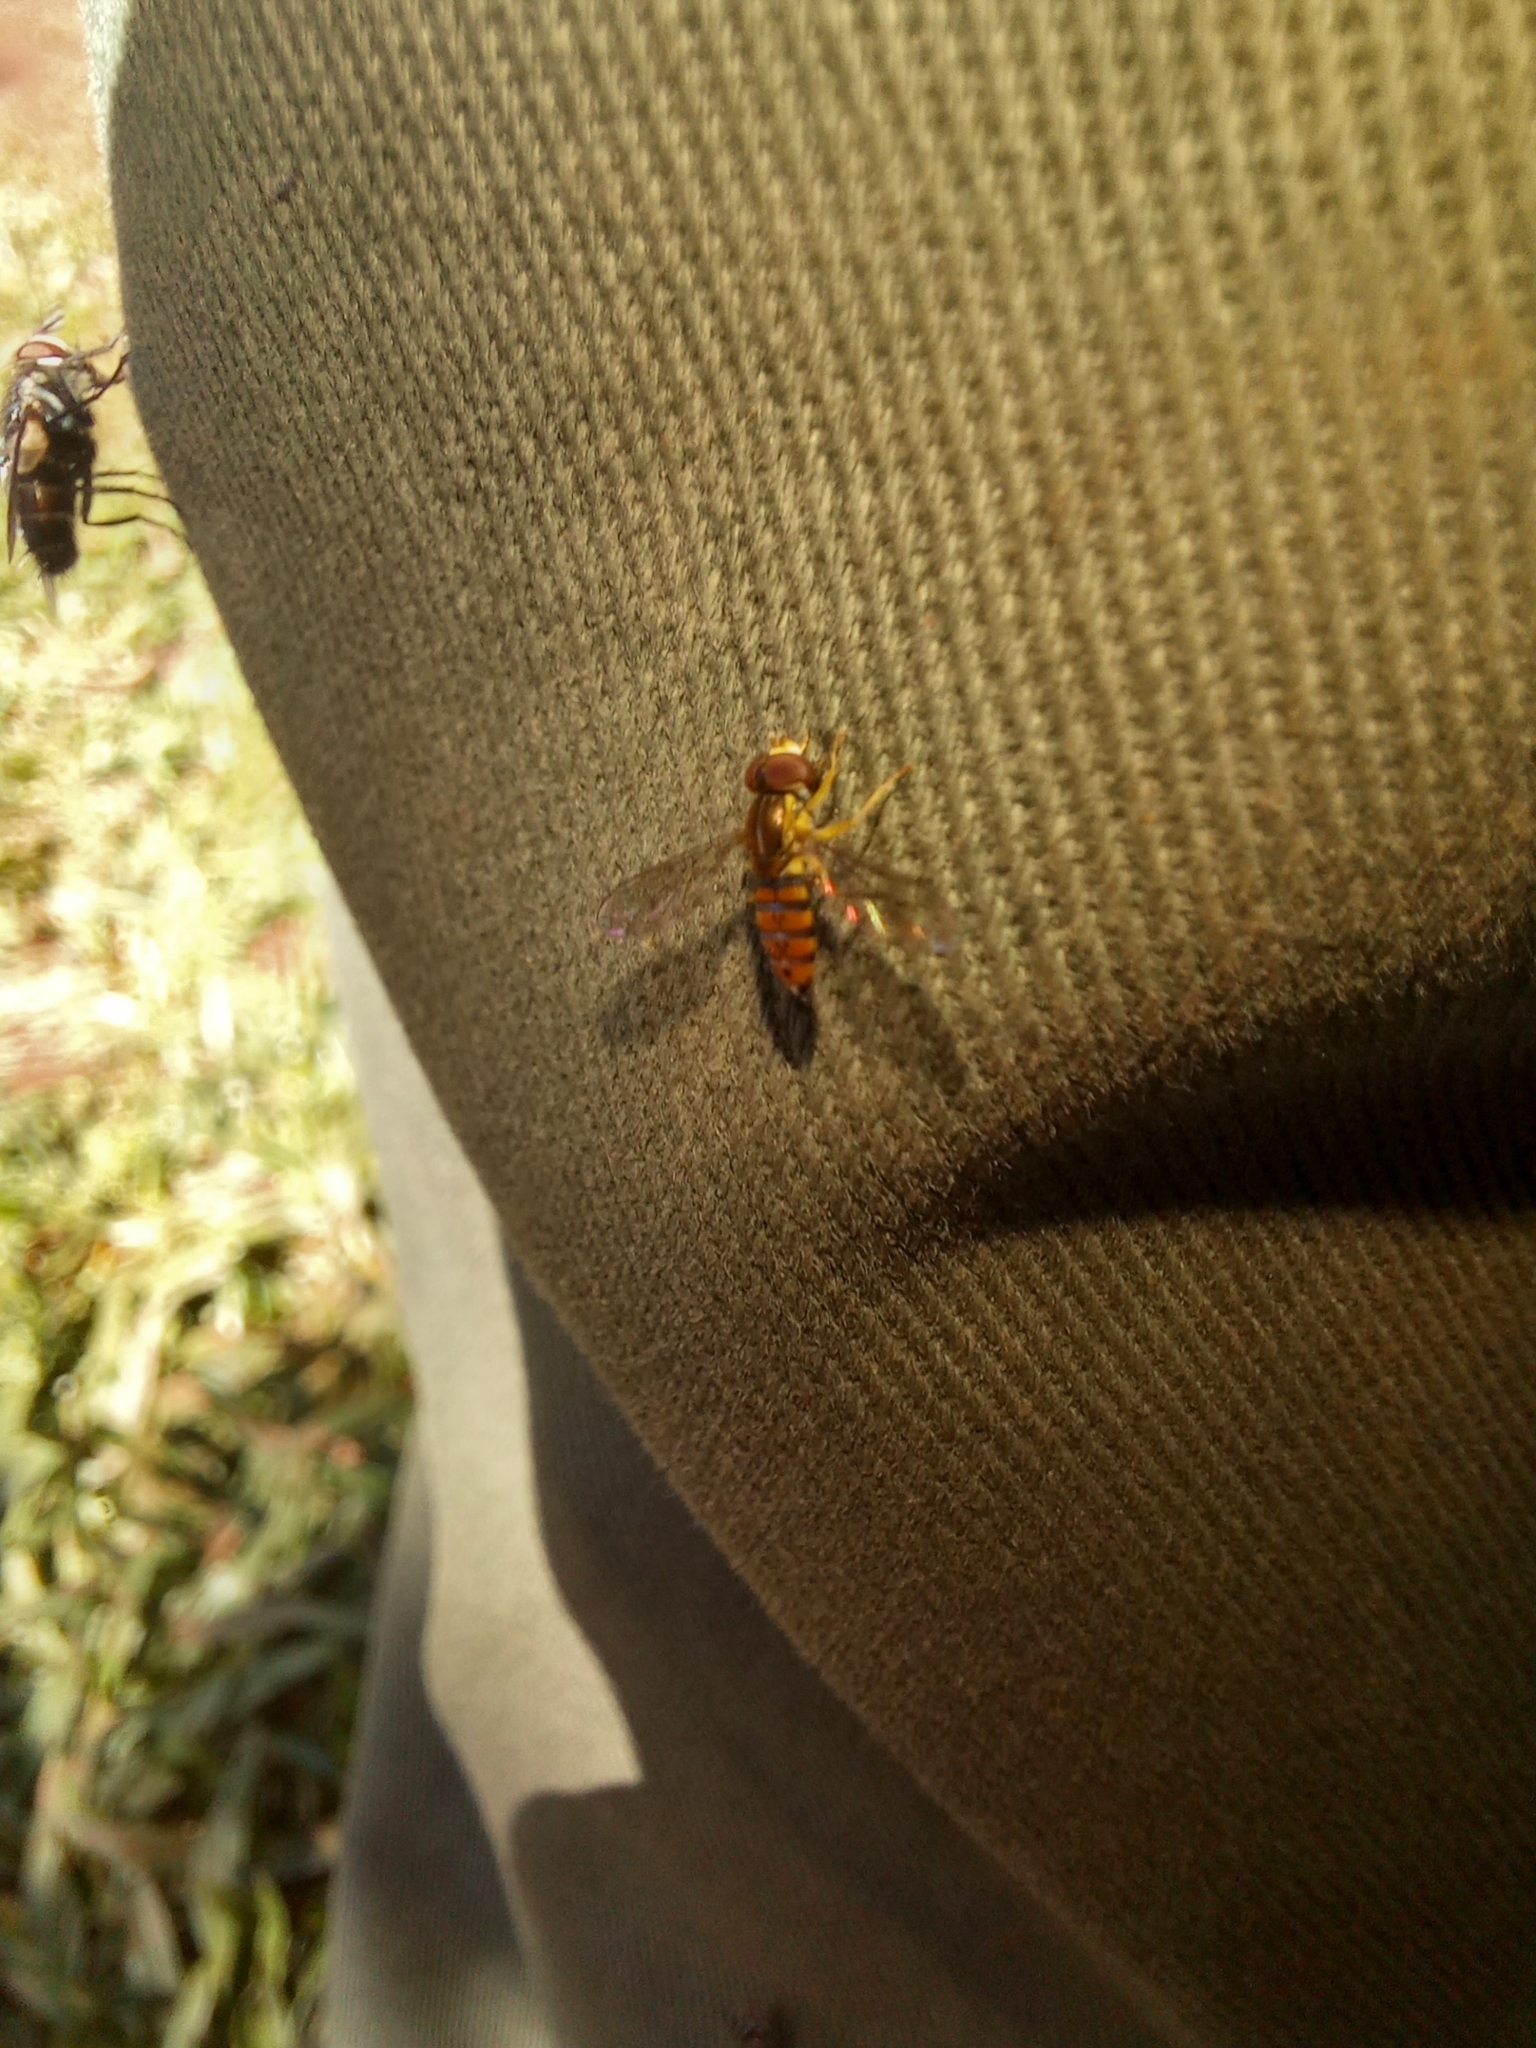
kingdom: Animalia
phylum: Arthropoda
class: Insecta
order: Diptera
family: Syrphidae
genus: Toxomerus
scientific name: Toxomerus
